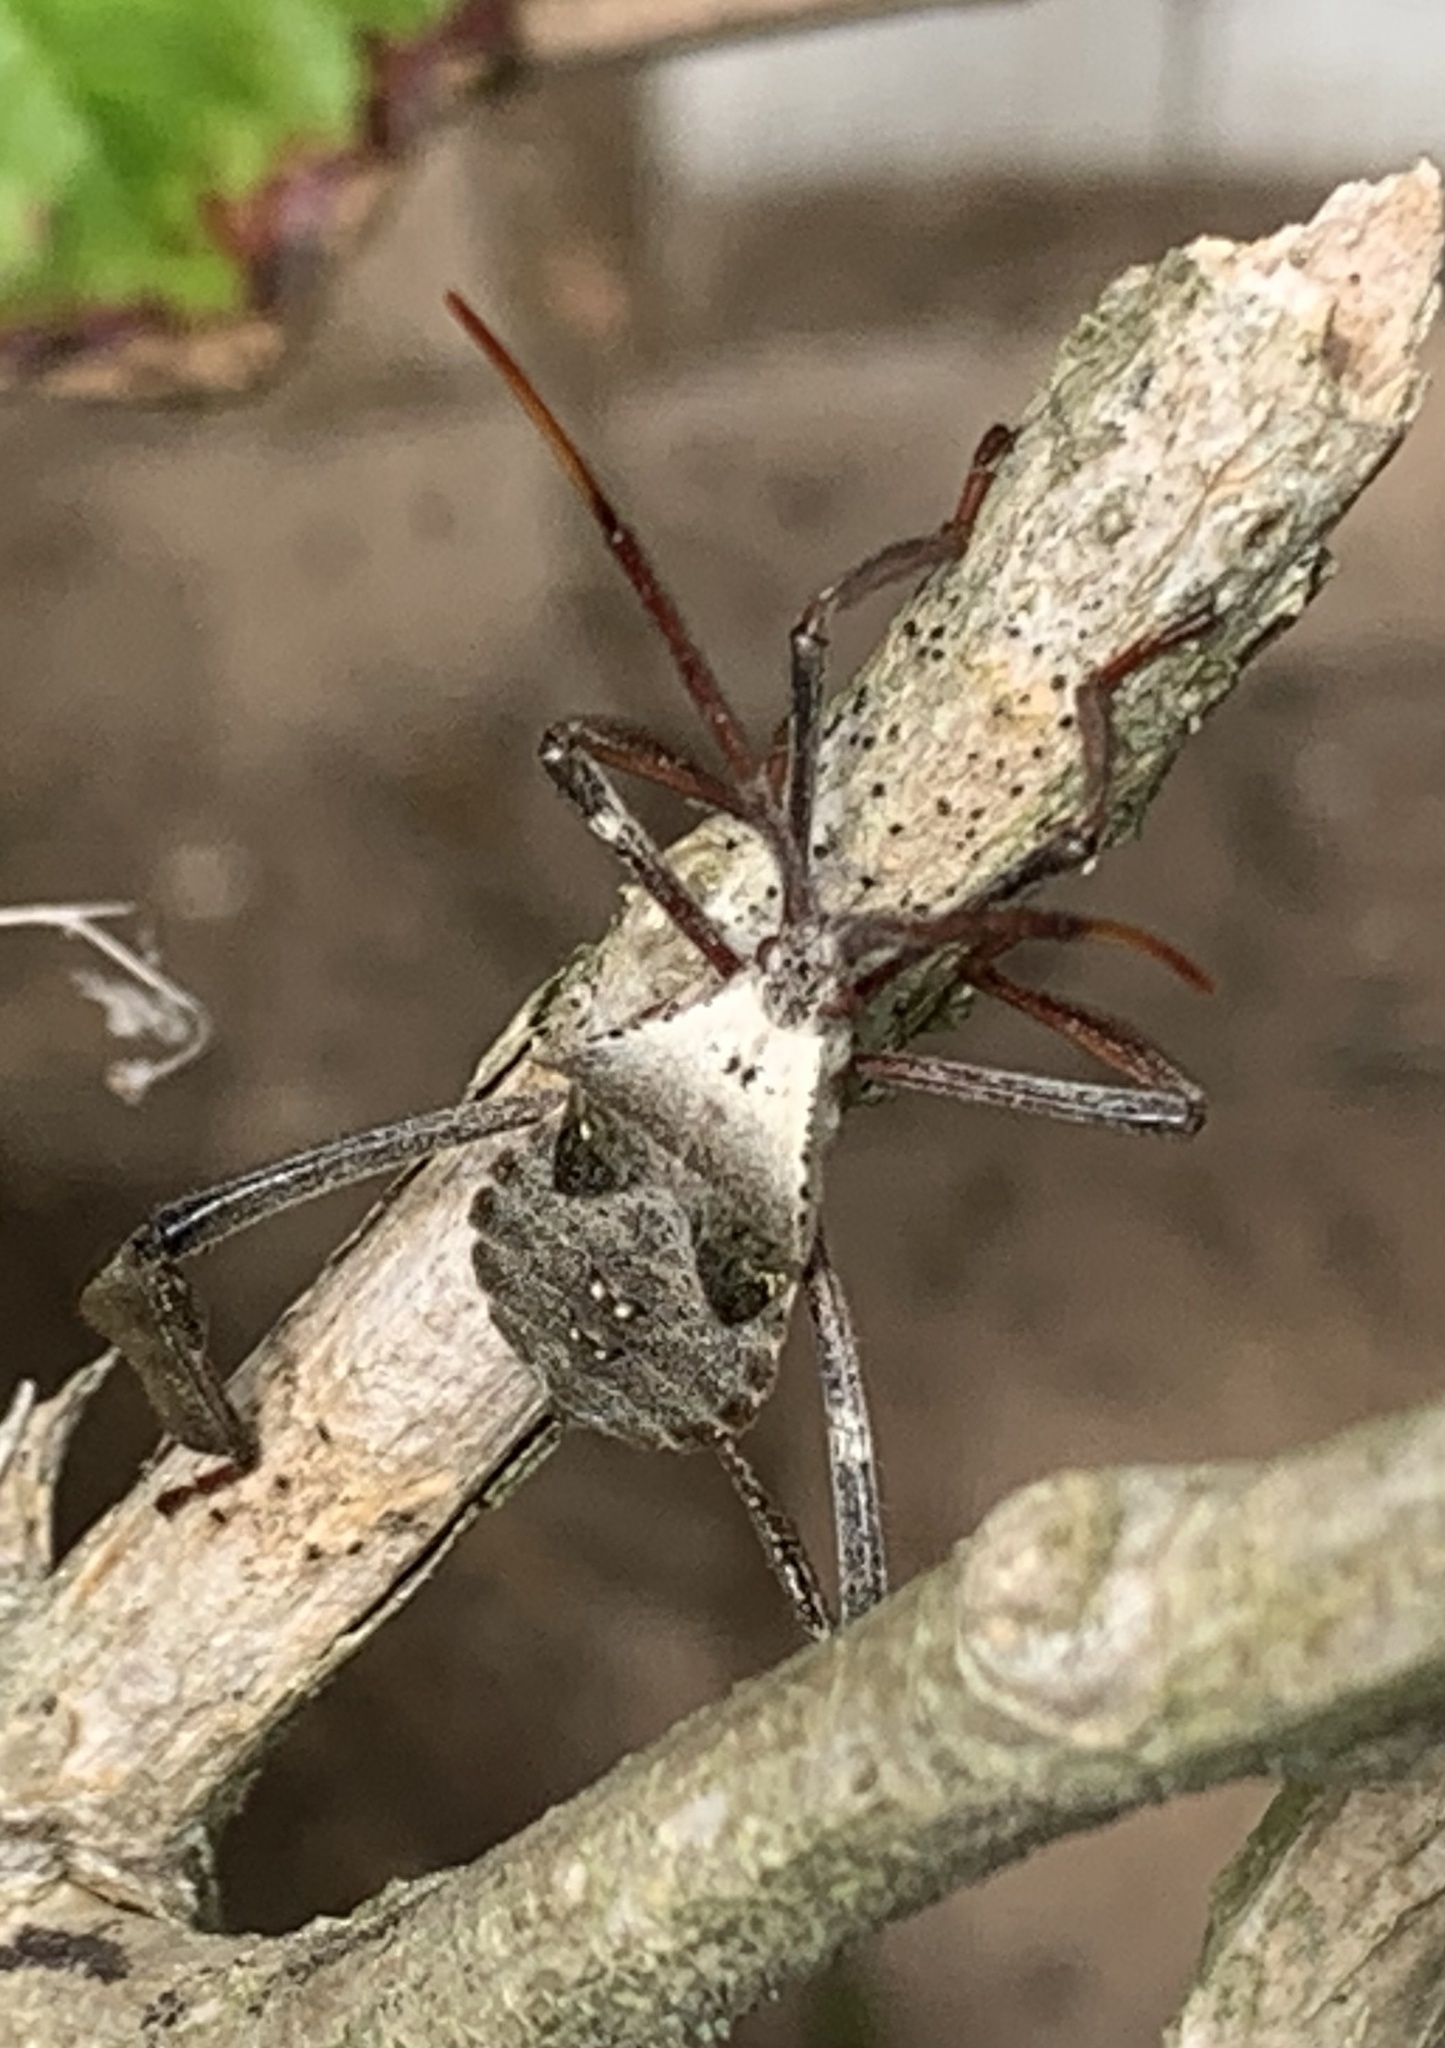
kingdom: Animalia
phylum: Arthropoda
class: Insecta
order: Hemiptera
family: Coreidae
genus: Acanthocephala
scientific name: Acanthocephala declivis
